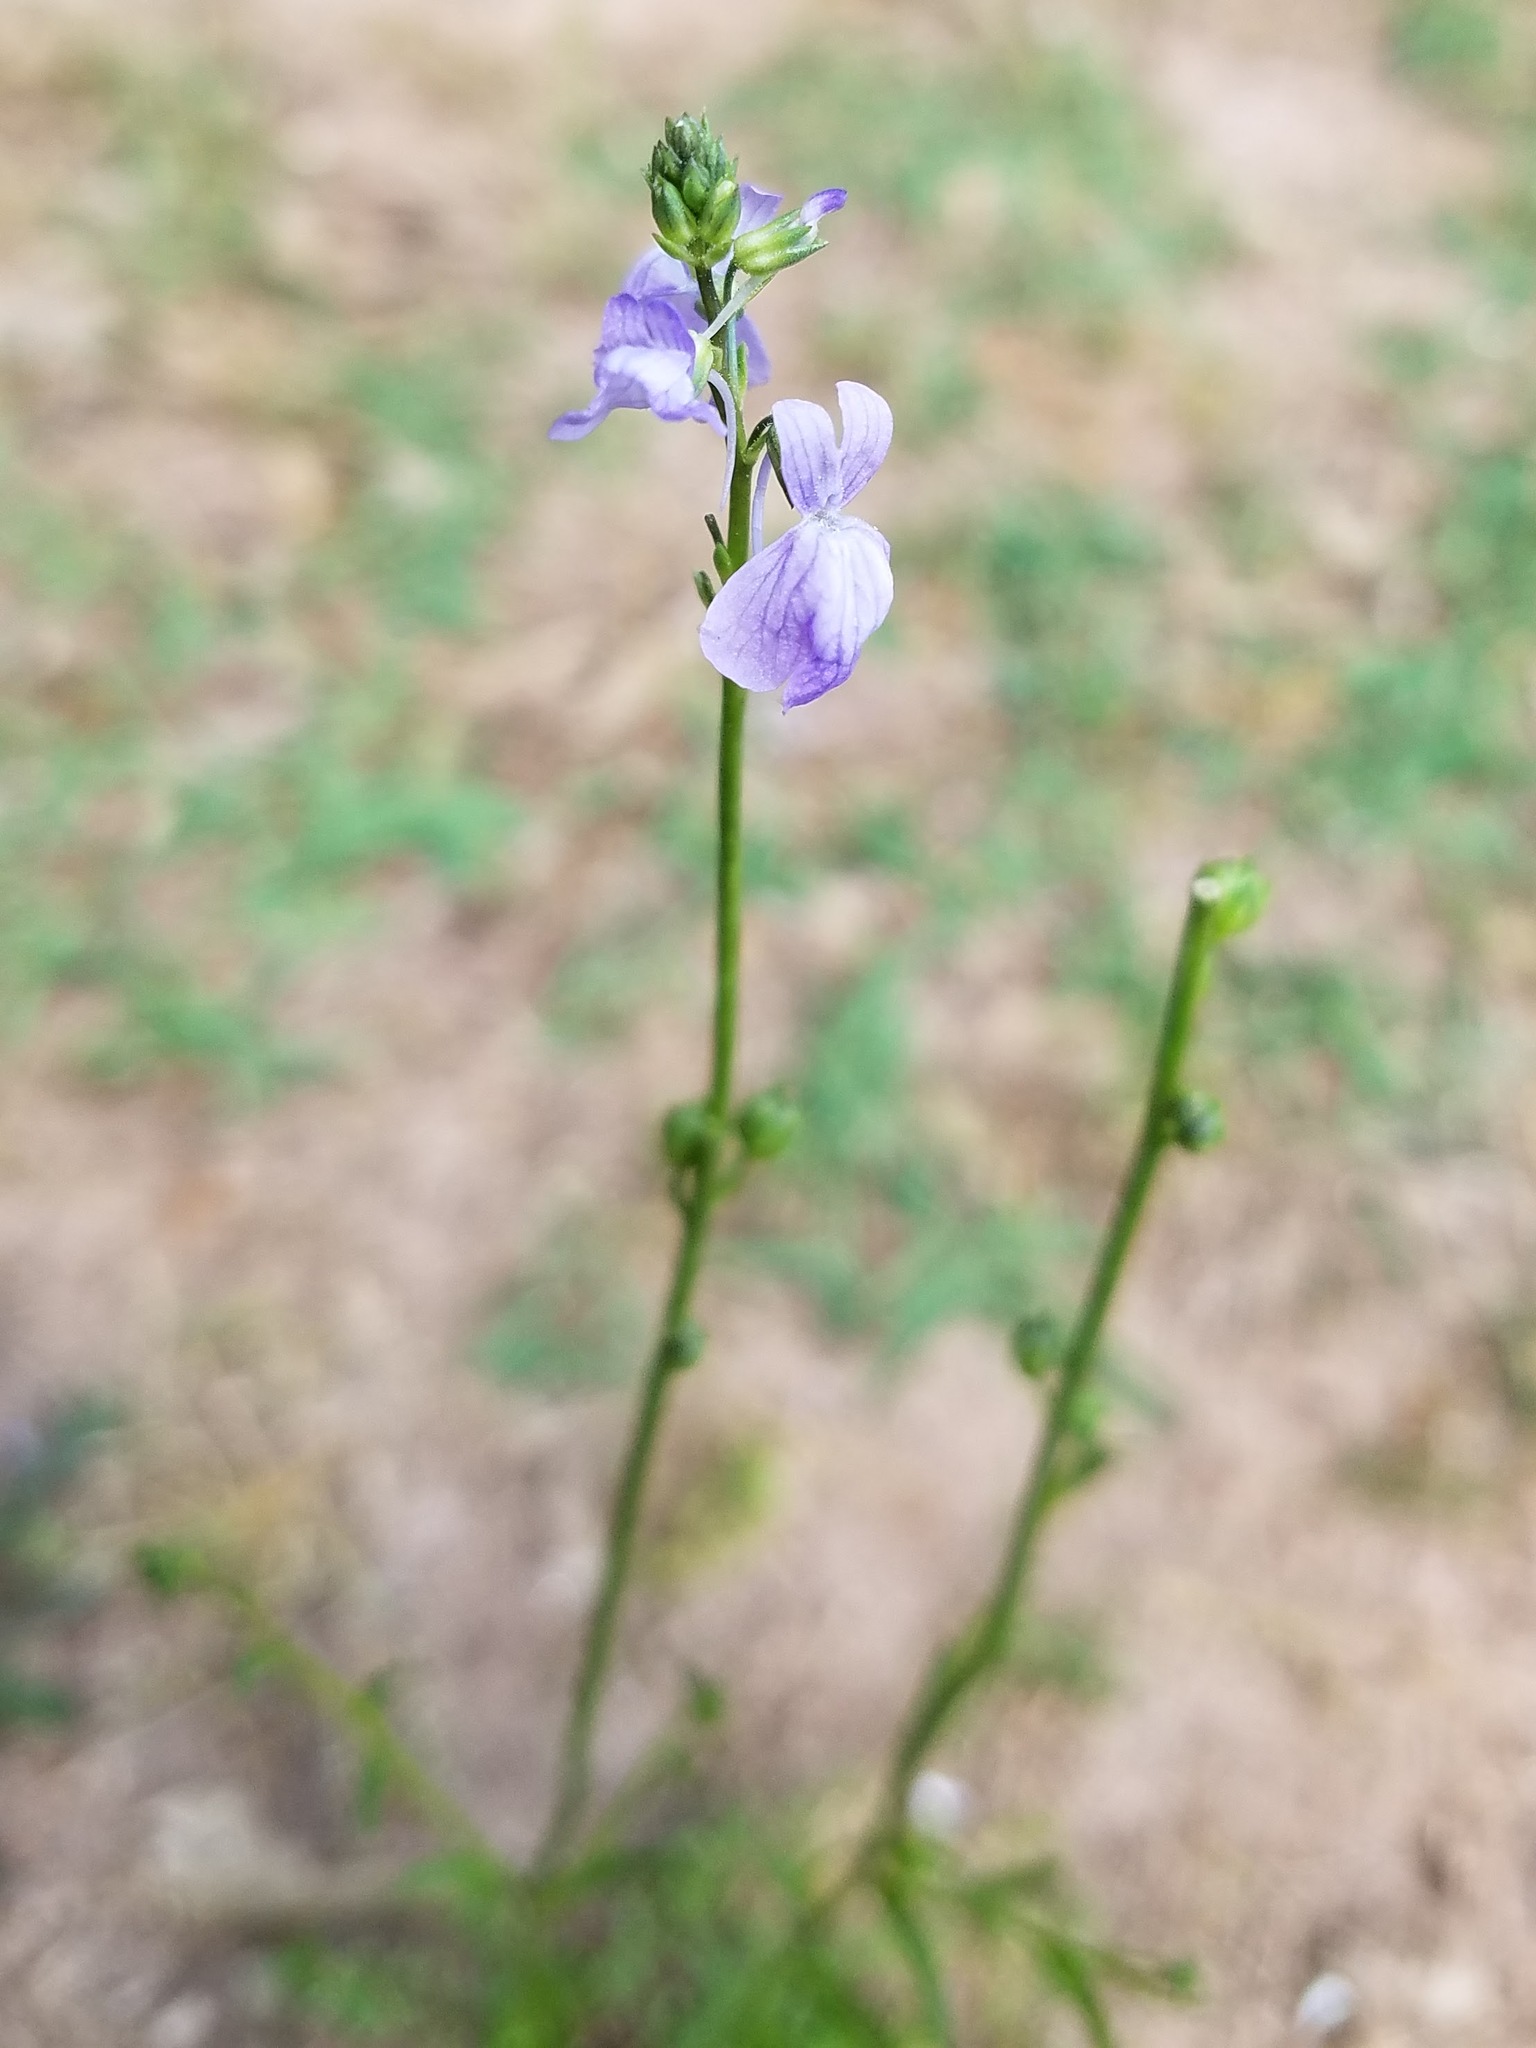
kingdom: Plantae
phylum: Tracheophyta
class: Magnoliopsida
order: Lamiales
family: Plantaginaceae
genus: Nuttallanthus
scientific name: Nuttallanthus texanus
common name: Texas toadflax
